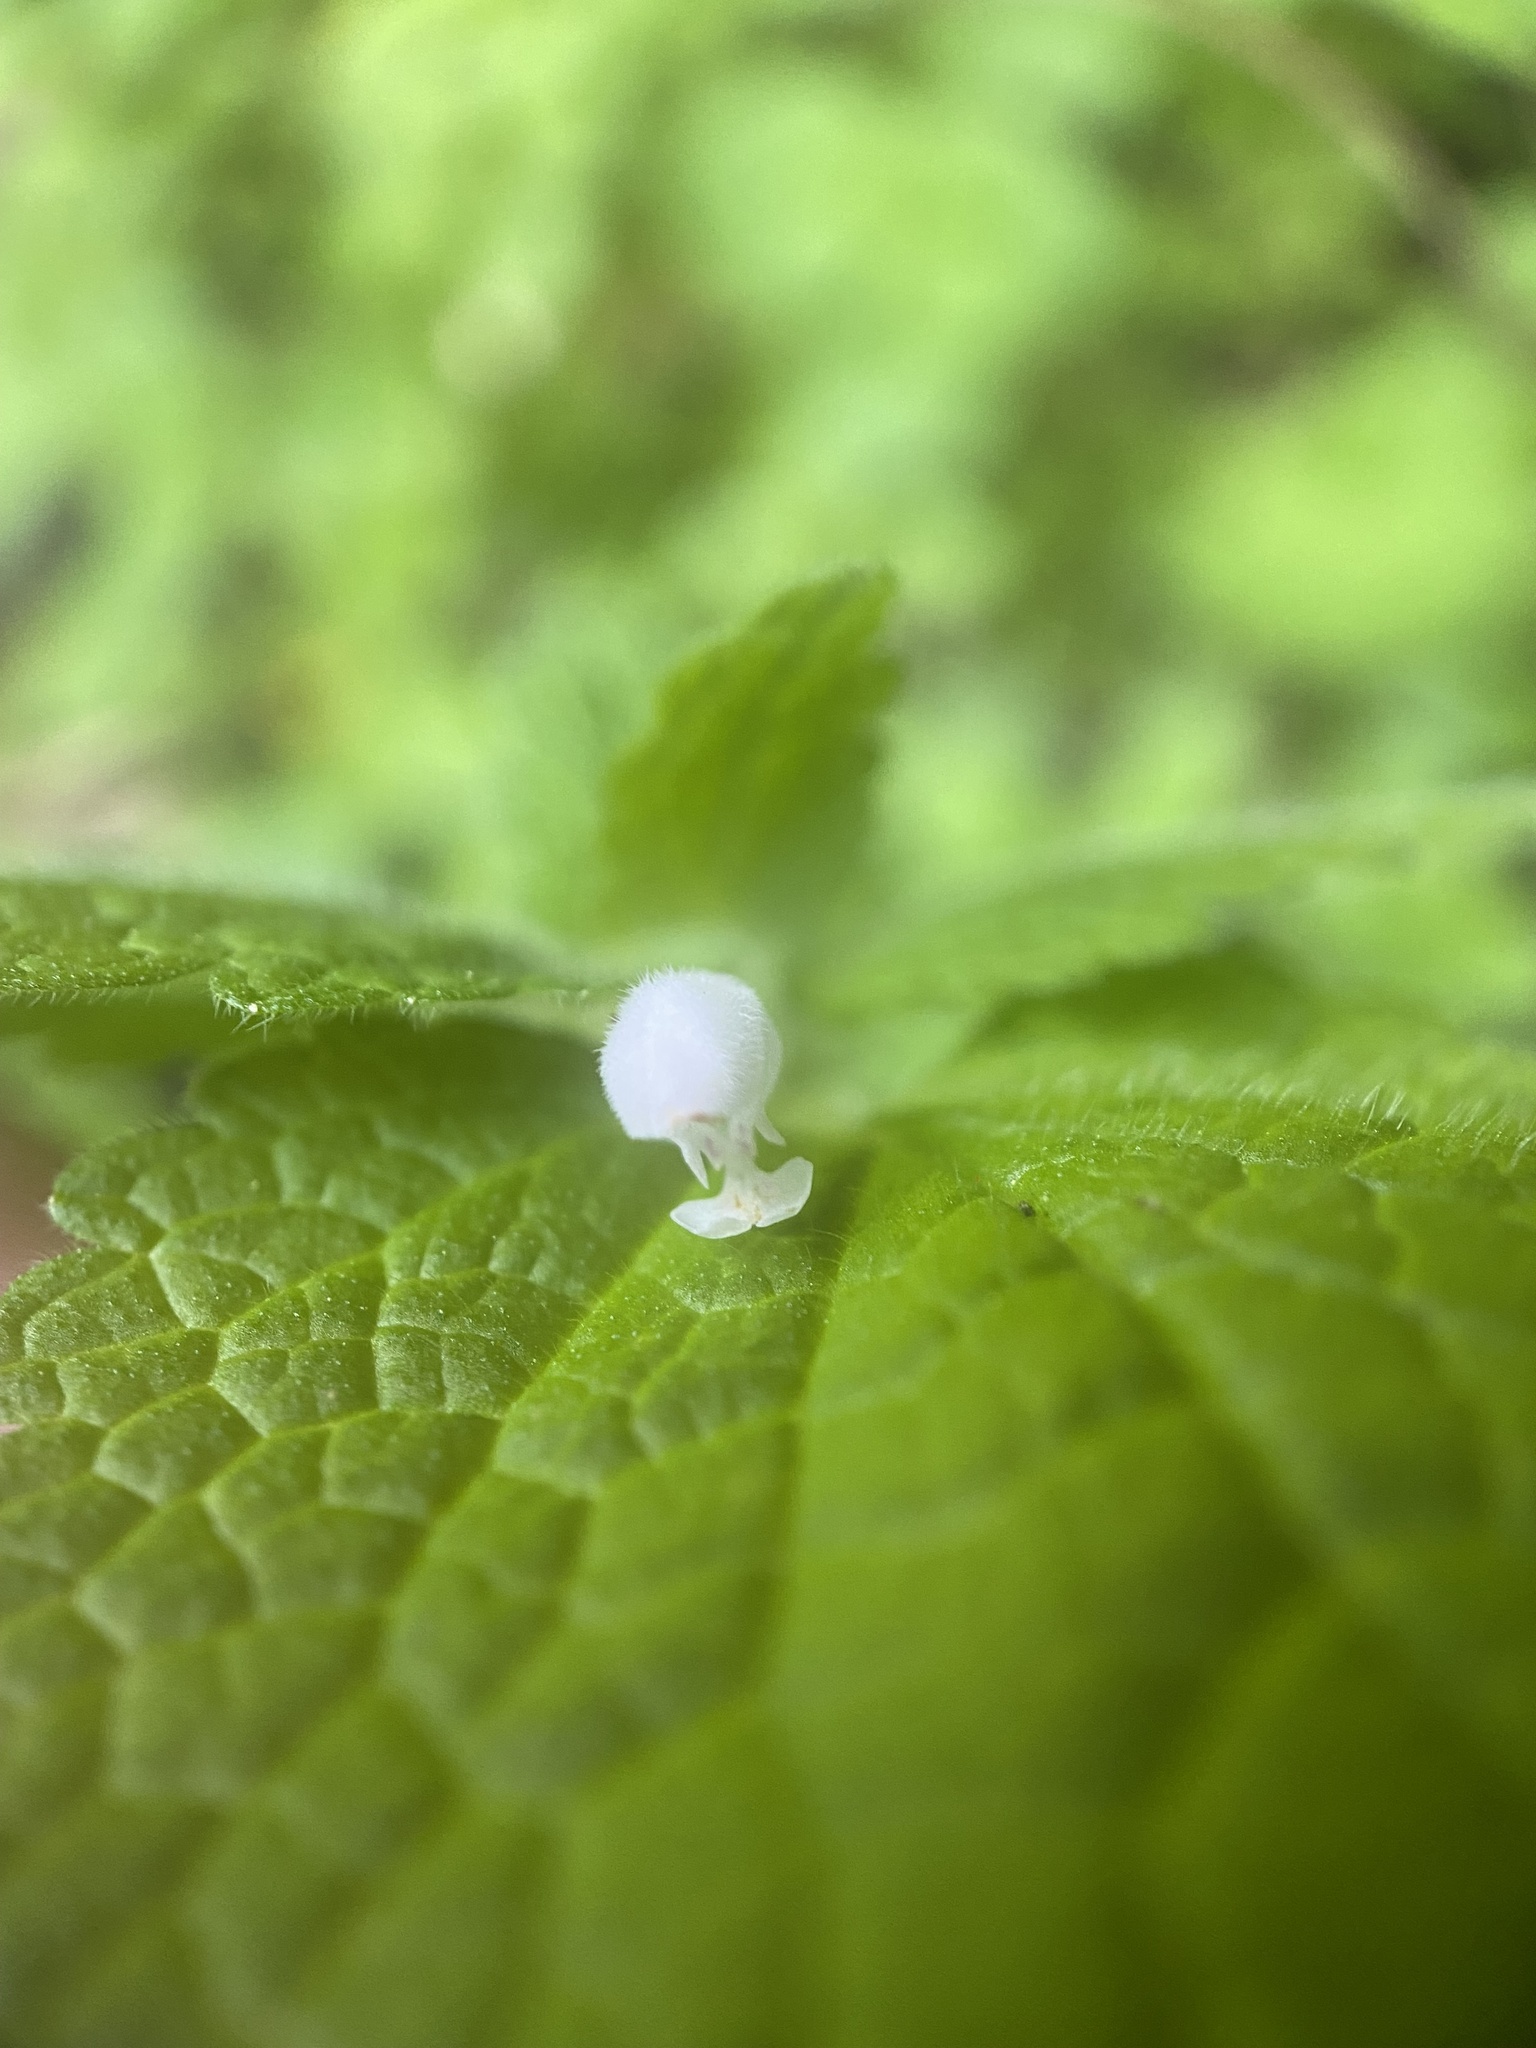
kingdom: Plantae
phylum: Tracheophyta
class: Magnoliopsida
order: Lamiales
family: Lamiaceae
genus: Lamium
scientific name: Lamium purpureum
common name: Red dead-nettle
